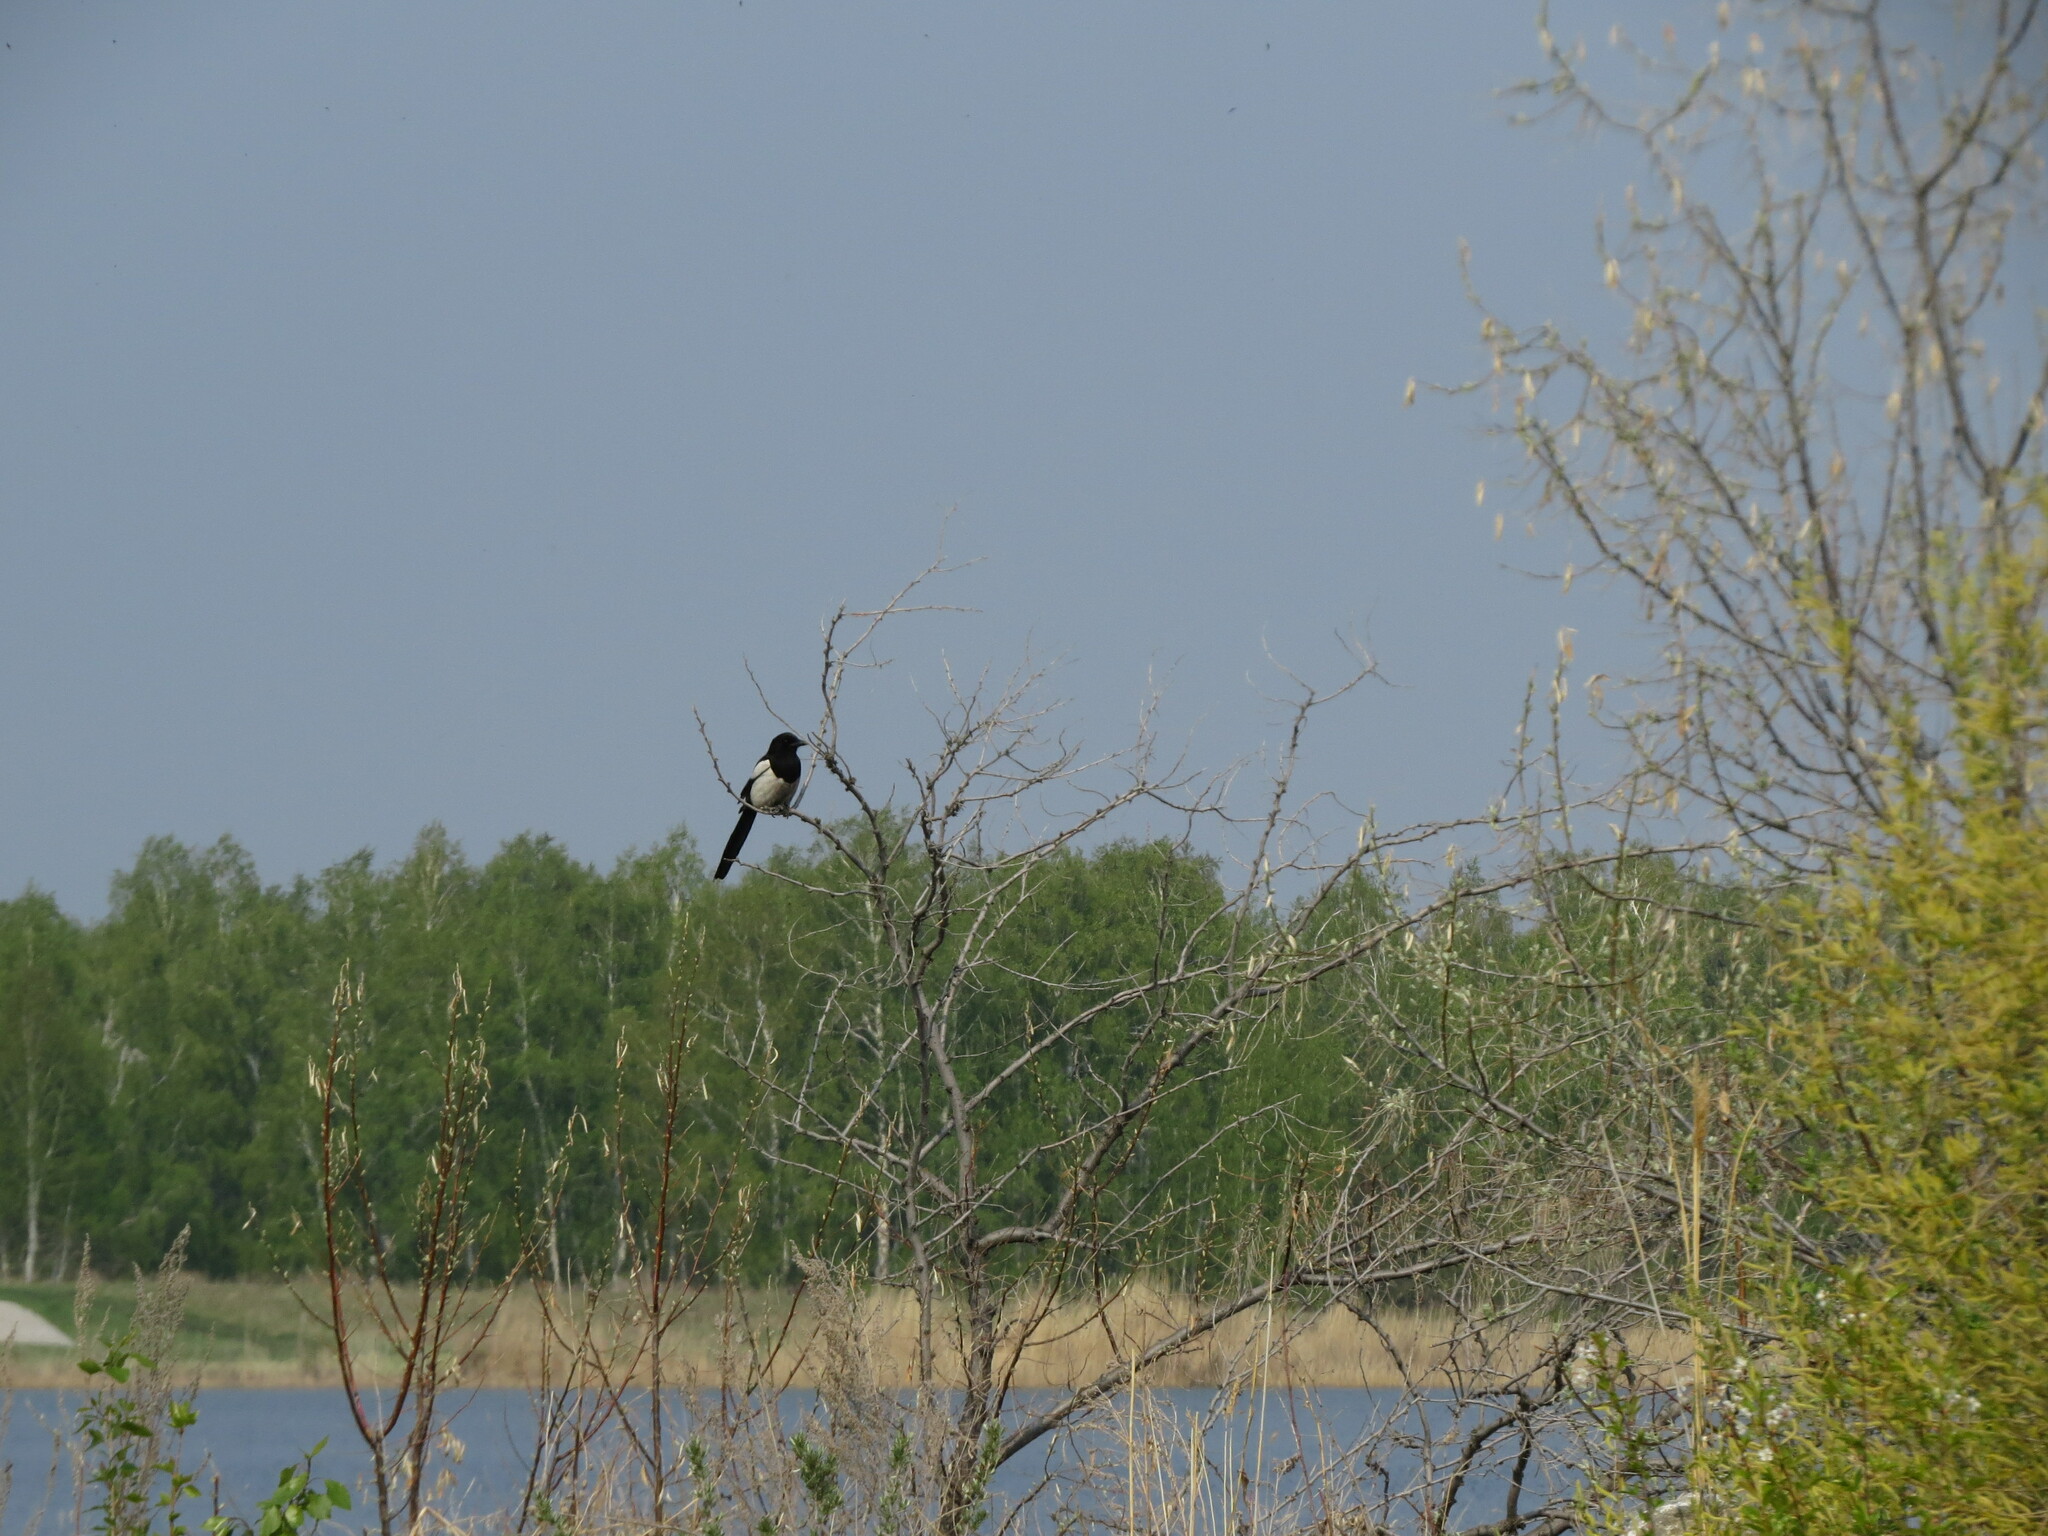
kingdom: Animalia
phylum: Chordata
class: Aves
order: Passeriformes
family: Corvidae
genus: Pica
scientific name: Pica pica
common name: Eurasian magpie
